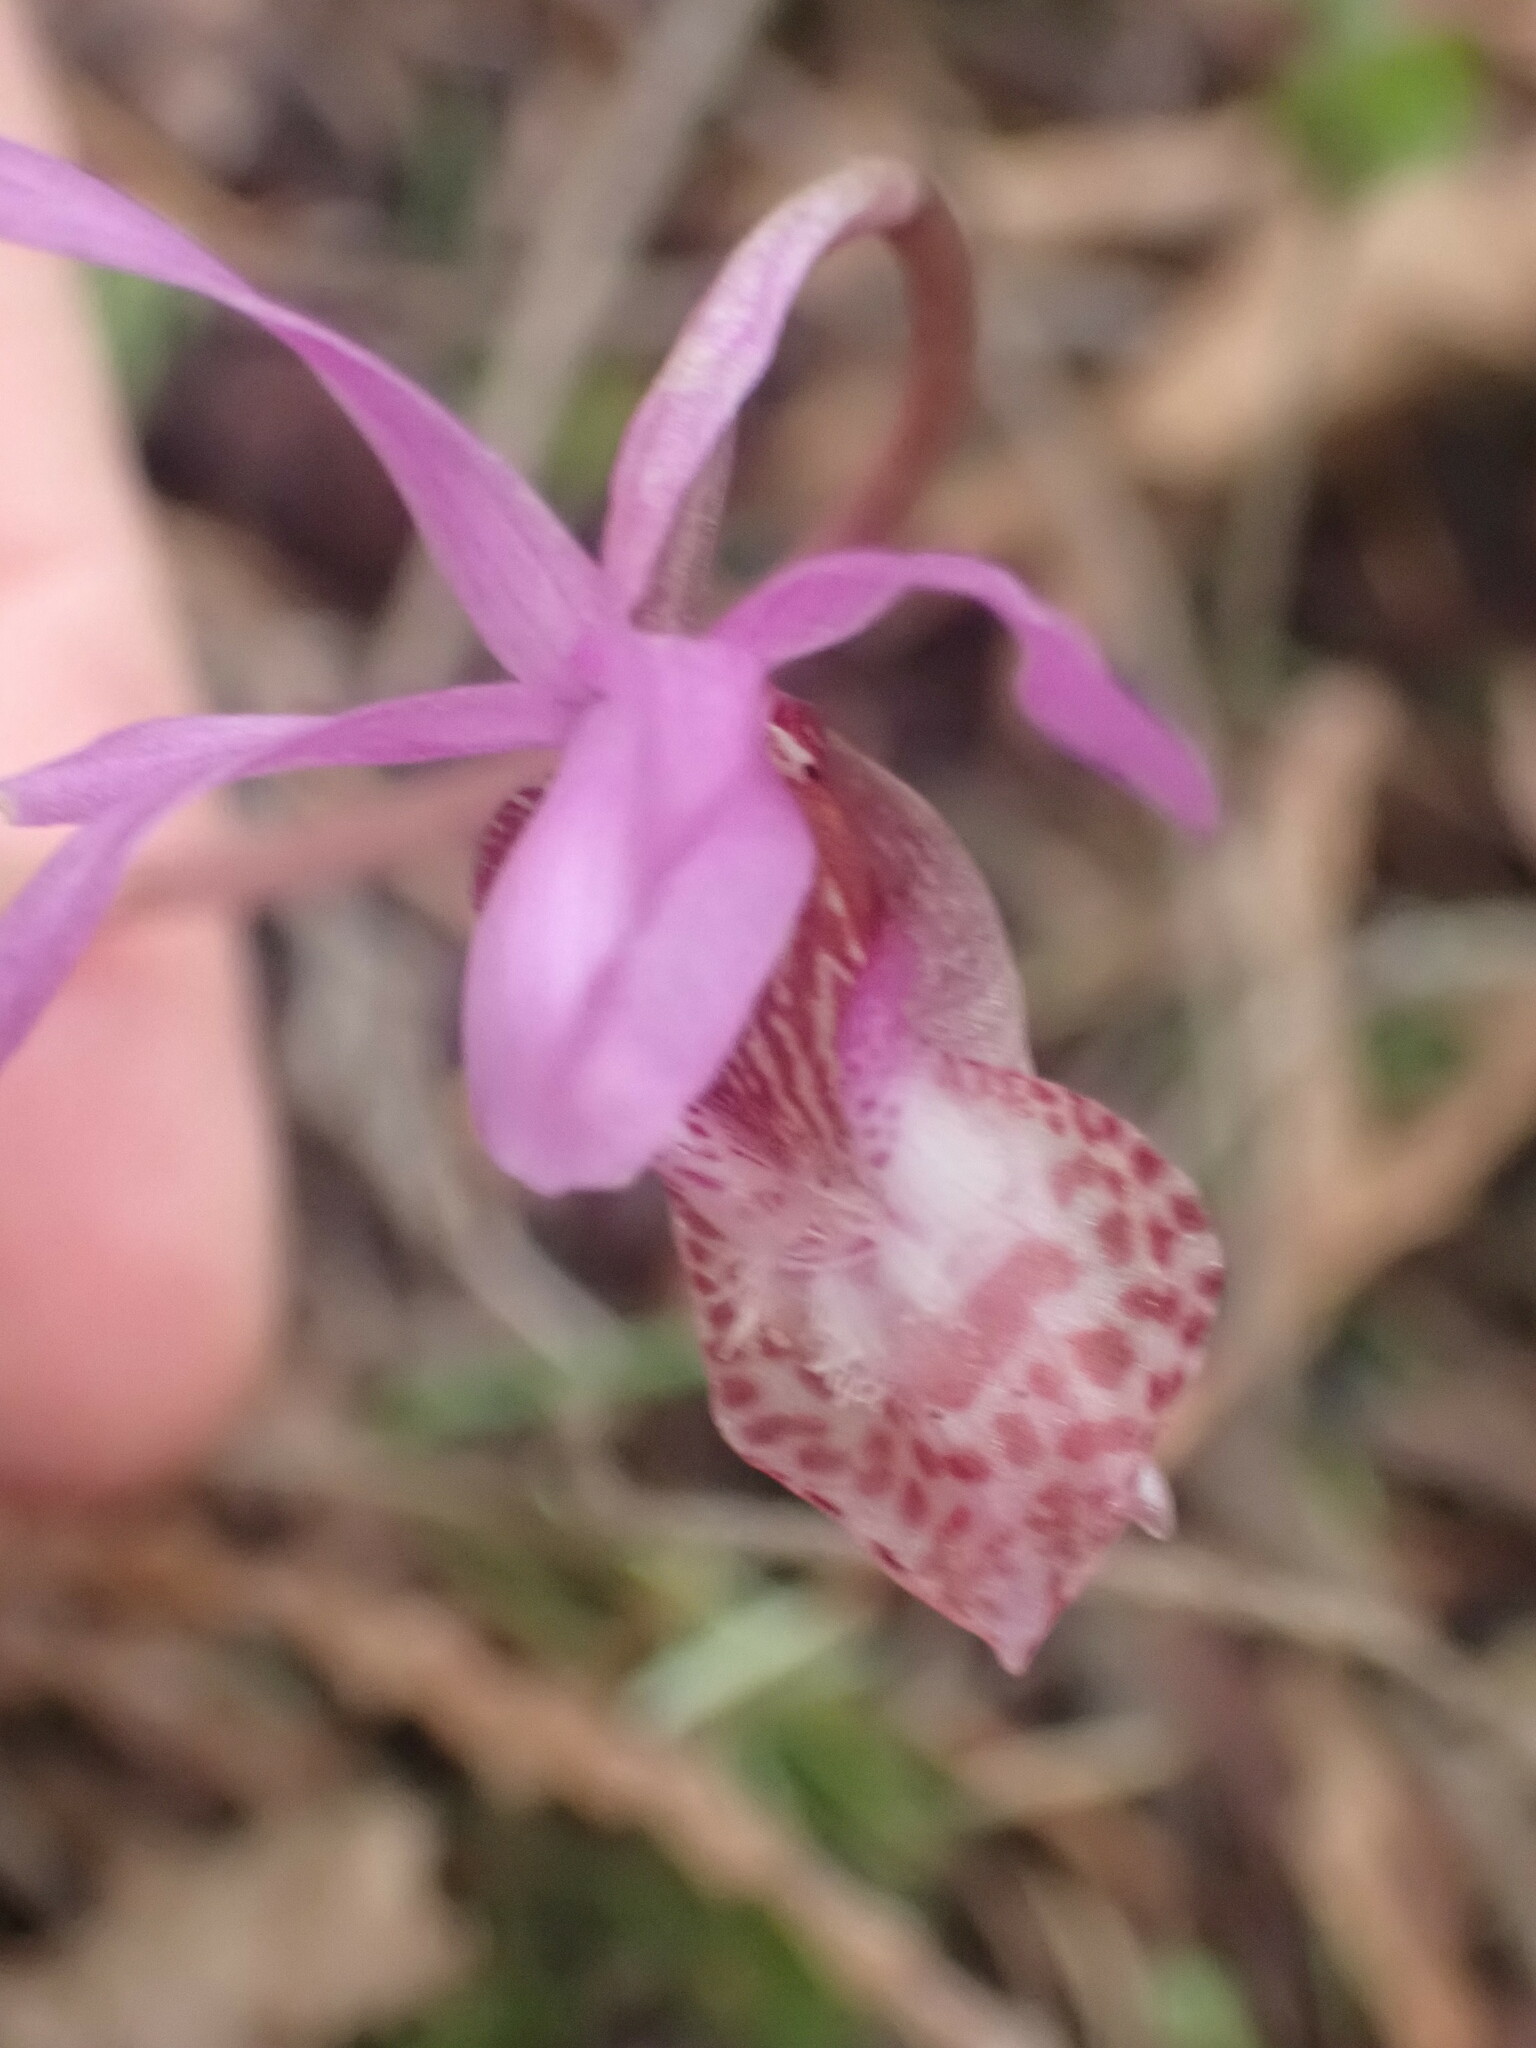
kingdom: Plantae
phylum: Tracheophyta
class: Liliopsida
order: Asparagales
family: Orchidaceae
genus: Calypso
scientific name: Calypso bulbosa
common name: Calypso
